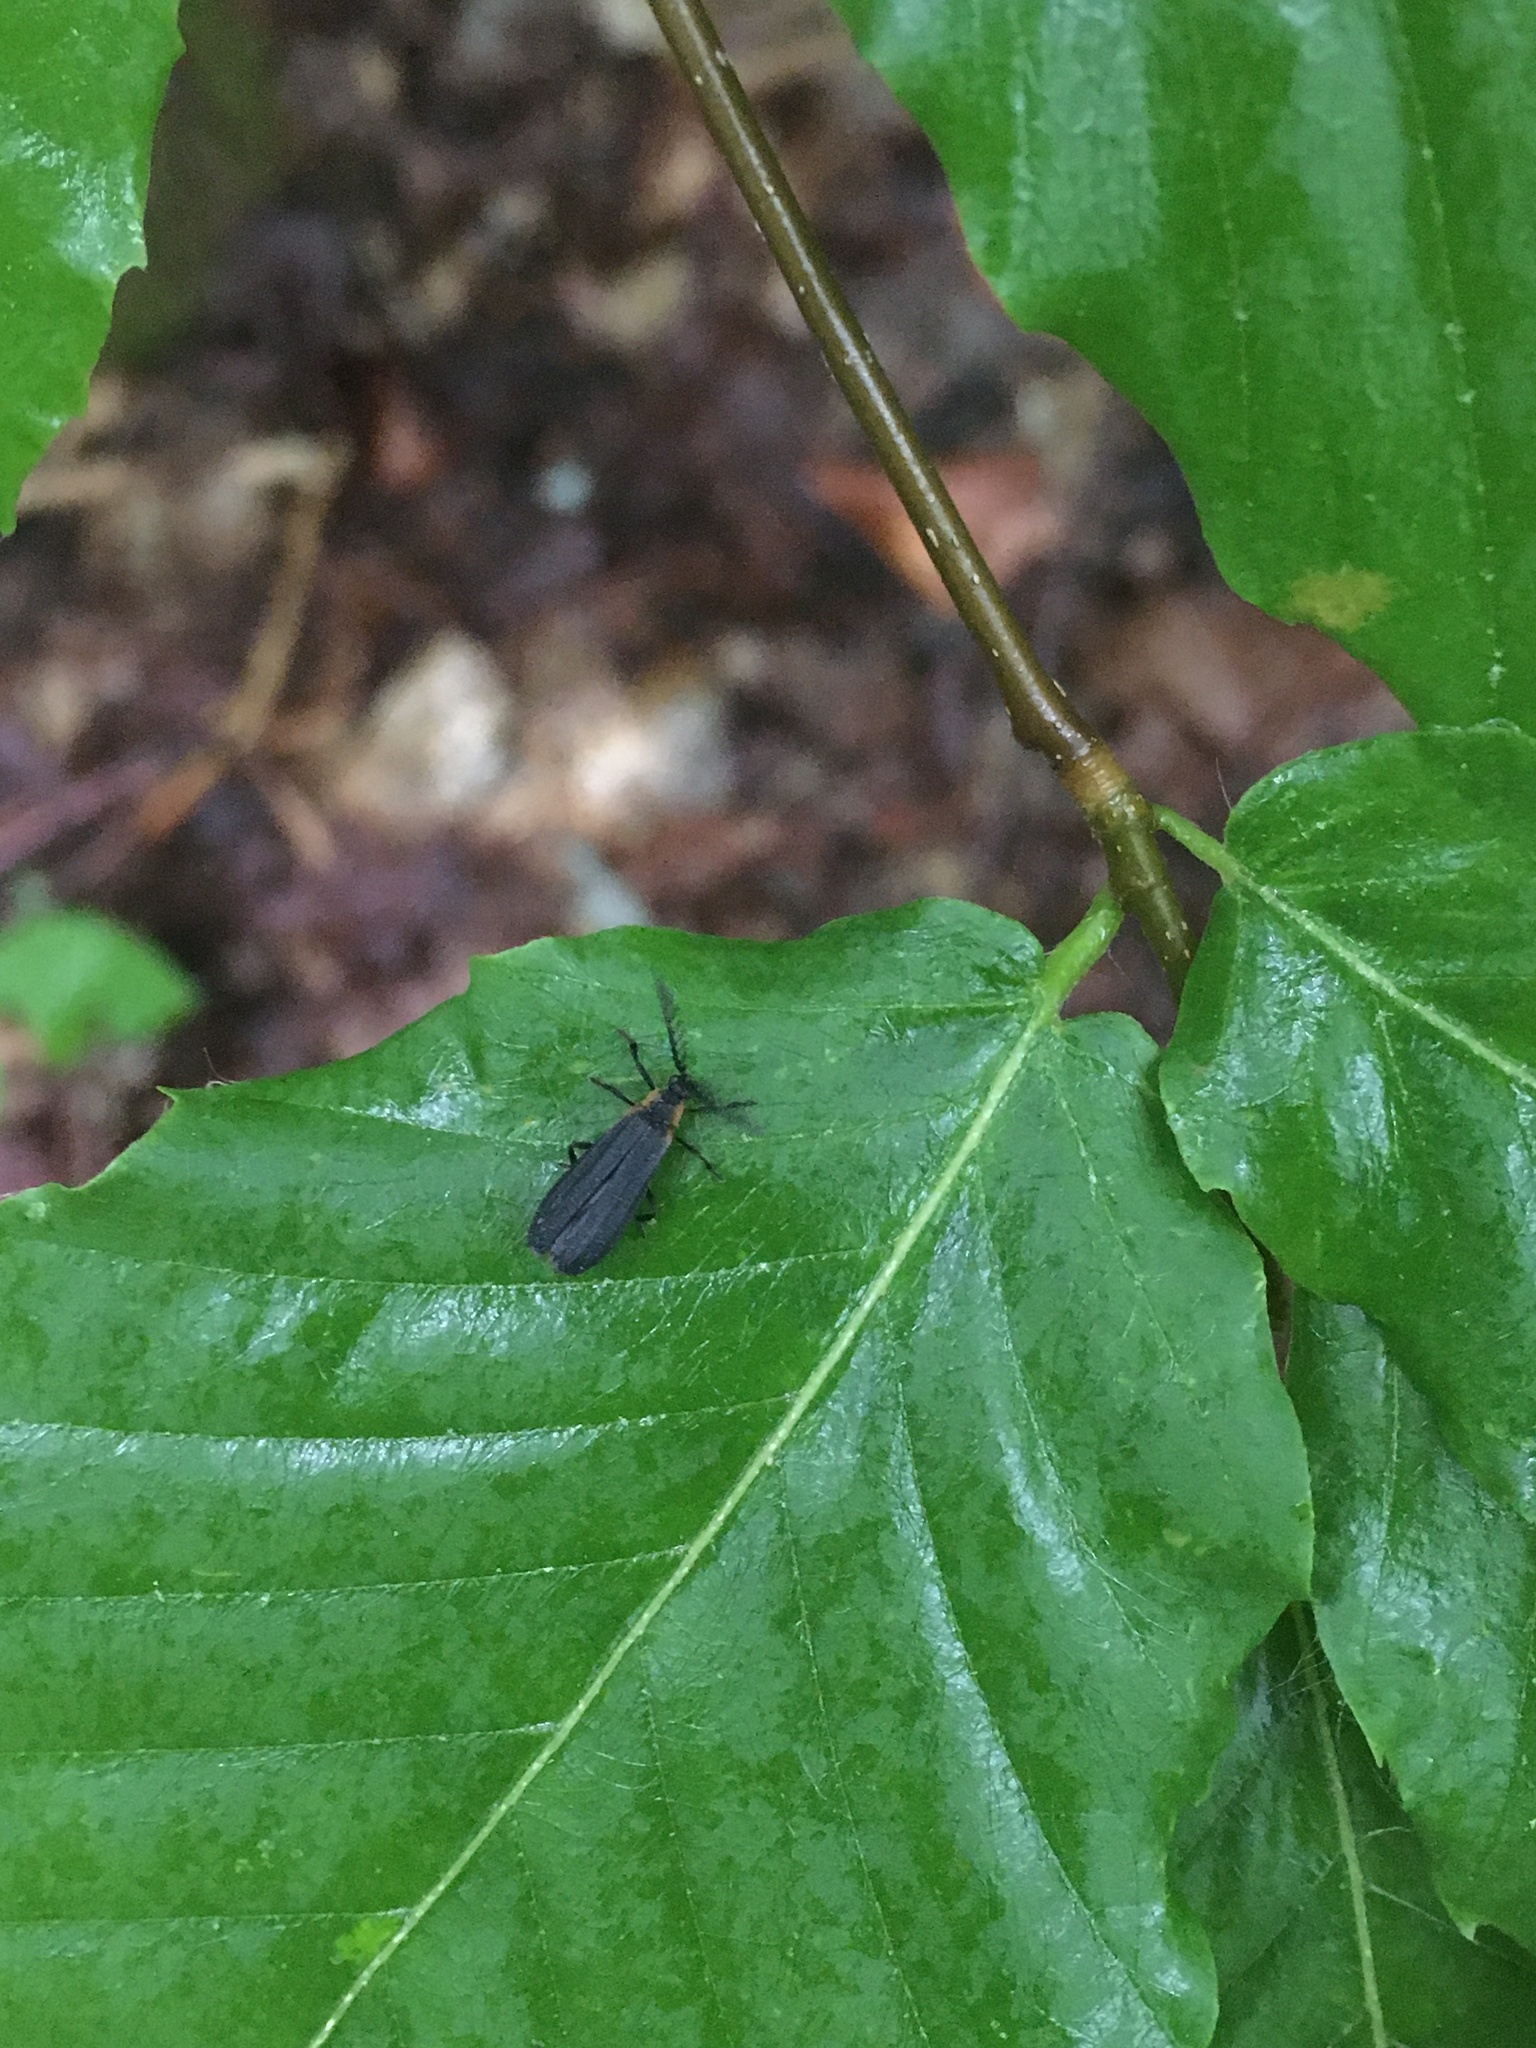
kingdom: Animalia
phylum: Arthropoda
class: Insecta
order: Coleoptera
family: Lycidae
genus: Leptoceletes
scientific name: Leptoceletes basalis
